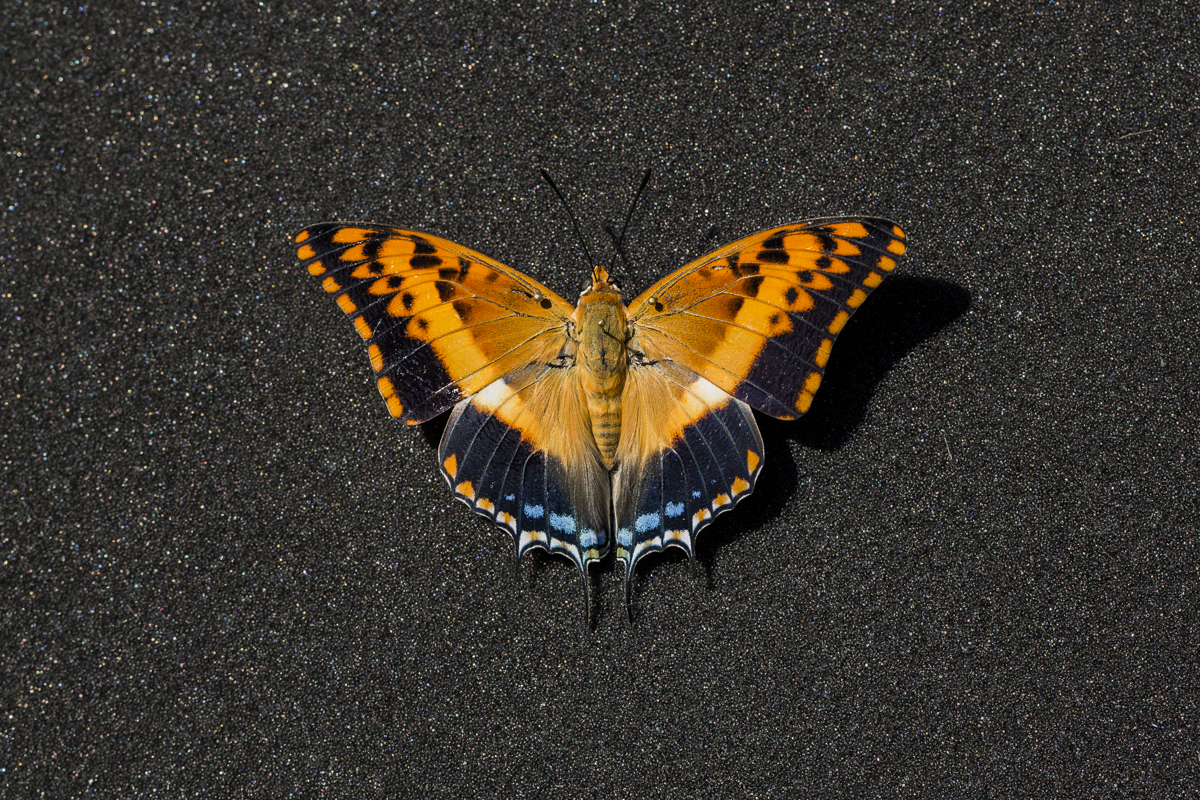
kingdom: Animalia
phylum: Arthropoda
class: Insecta
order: Lepidoptera
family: Nymphalidae
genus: Charaxes
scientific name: Charaxes jasius
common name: Two tailed pasha
